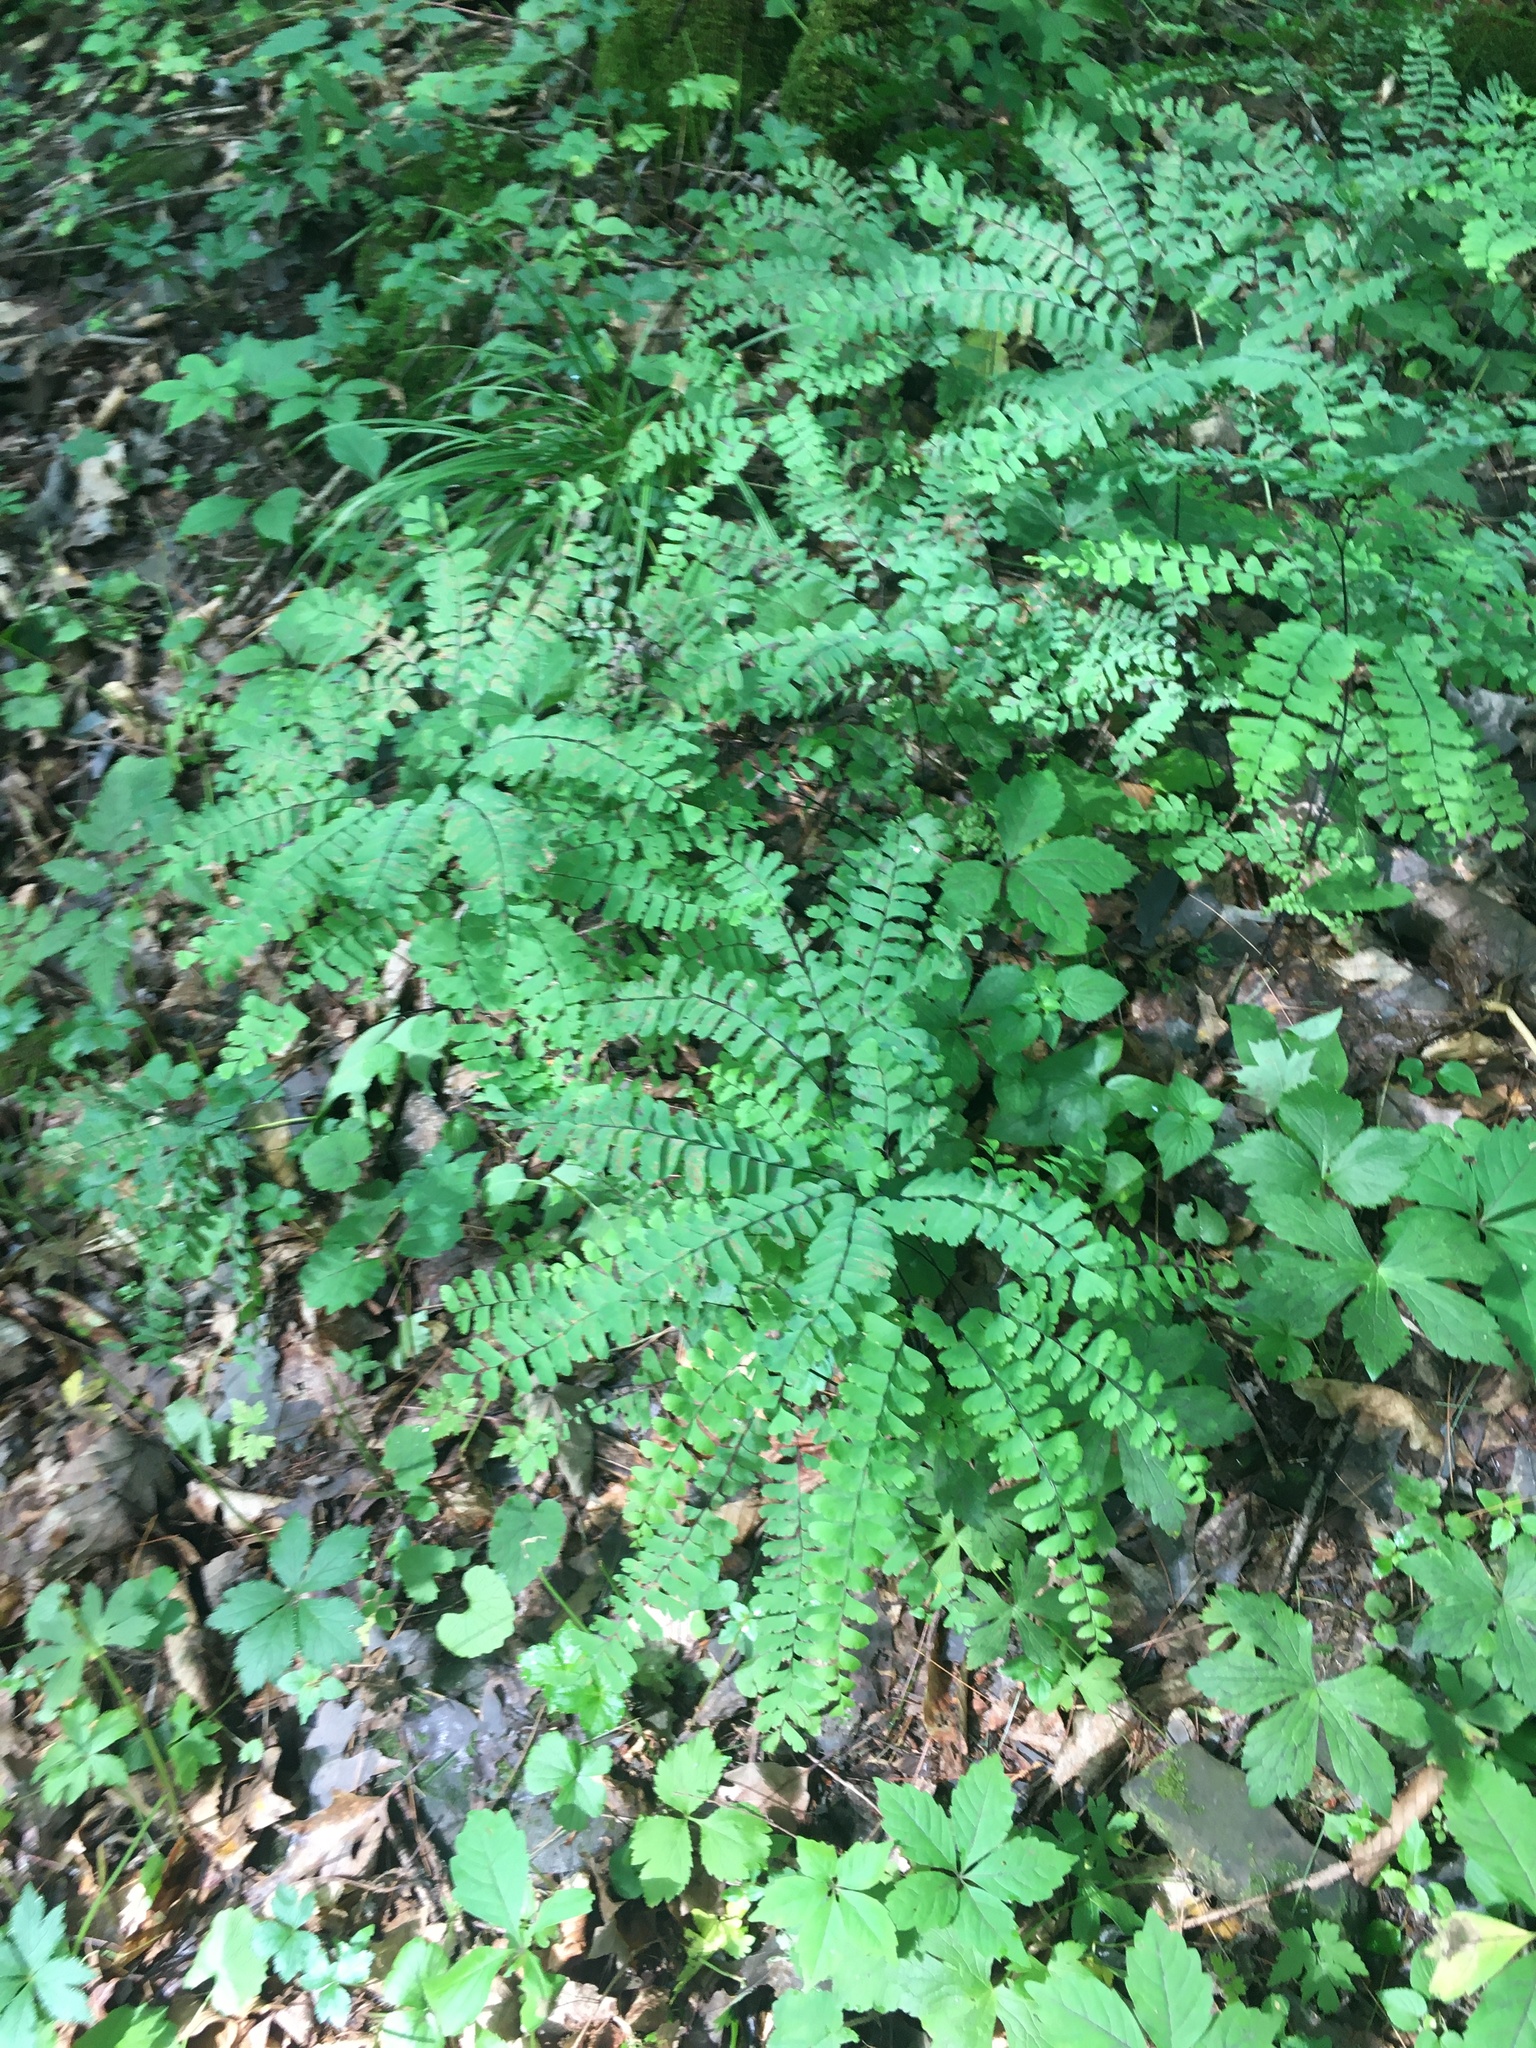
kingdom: Plantae
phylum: Tracheophyta
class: Polypodiopsida
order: Polypodiales
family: Pteridaceae
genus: Adiantum
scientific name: Adiantum pedatum
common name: Five-finger fern
